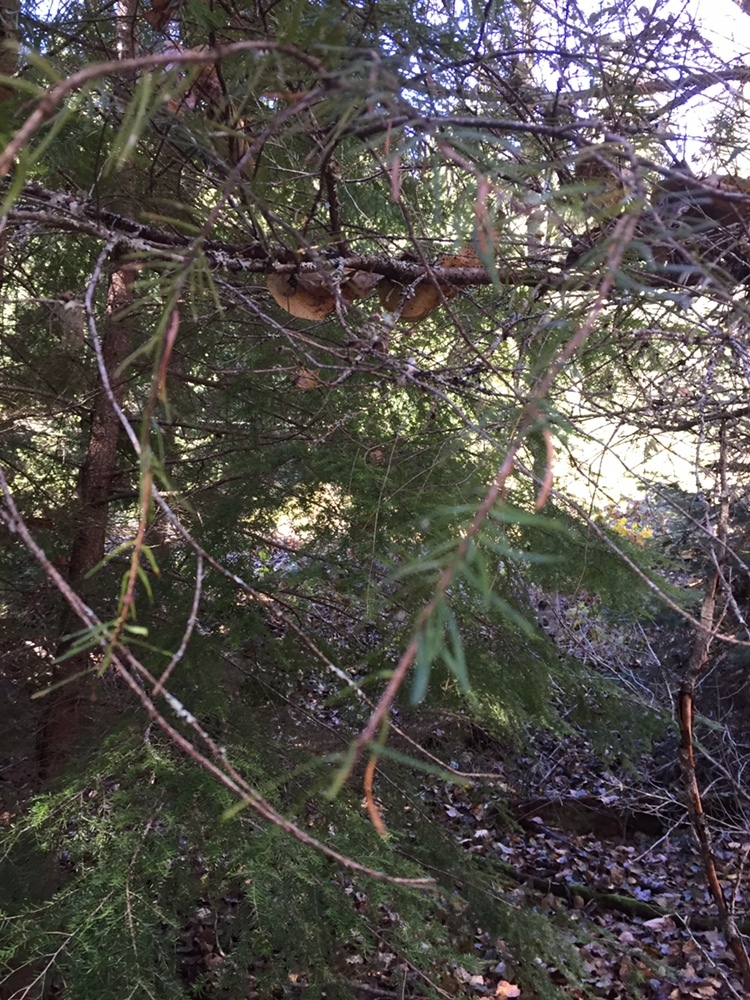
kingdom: Plantae
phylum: Tracheophyta
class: Pinopsida
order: Pinales
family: Pinaceae
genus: Tsuga
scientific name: Tsuga heterophylla
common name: Western hemlock
